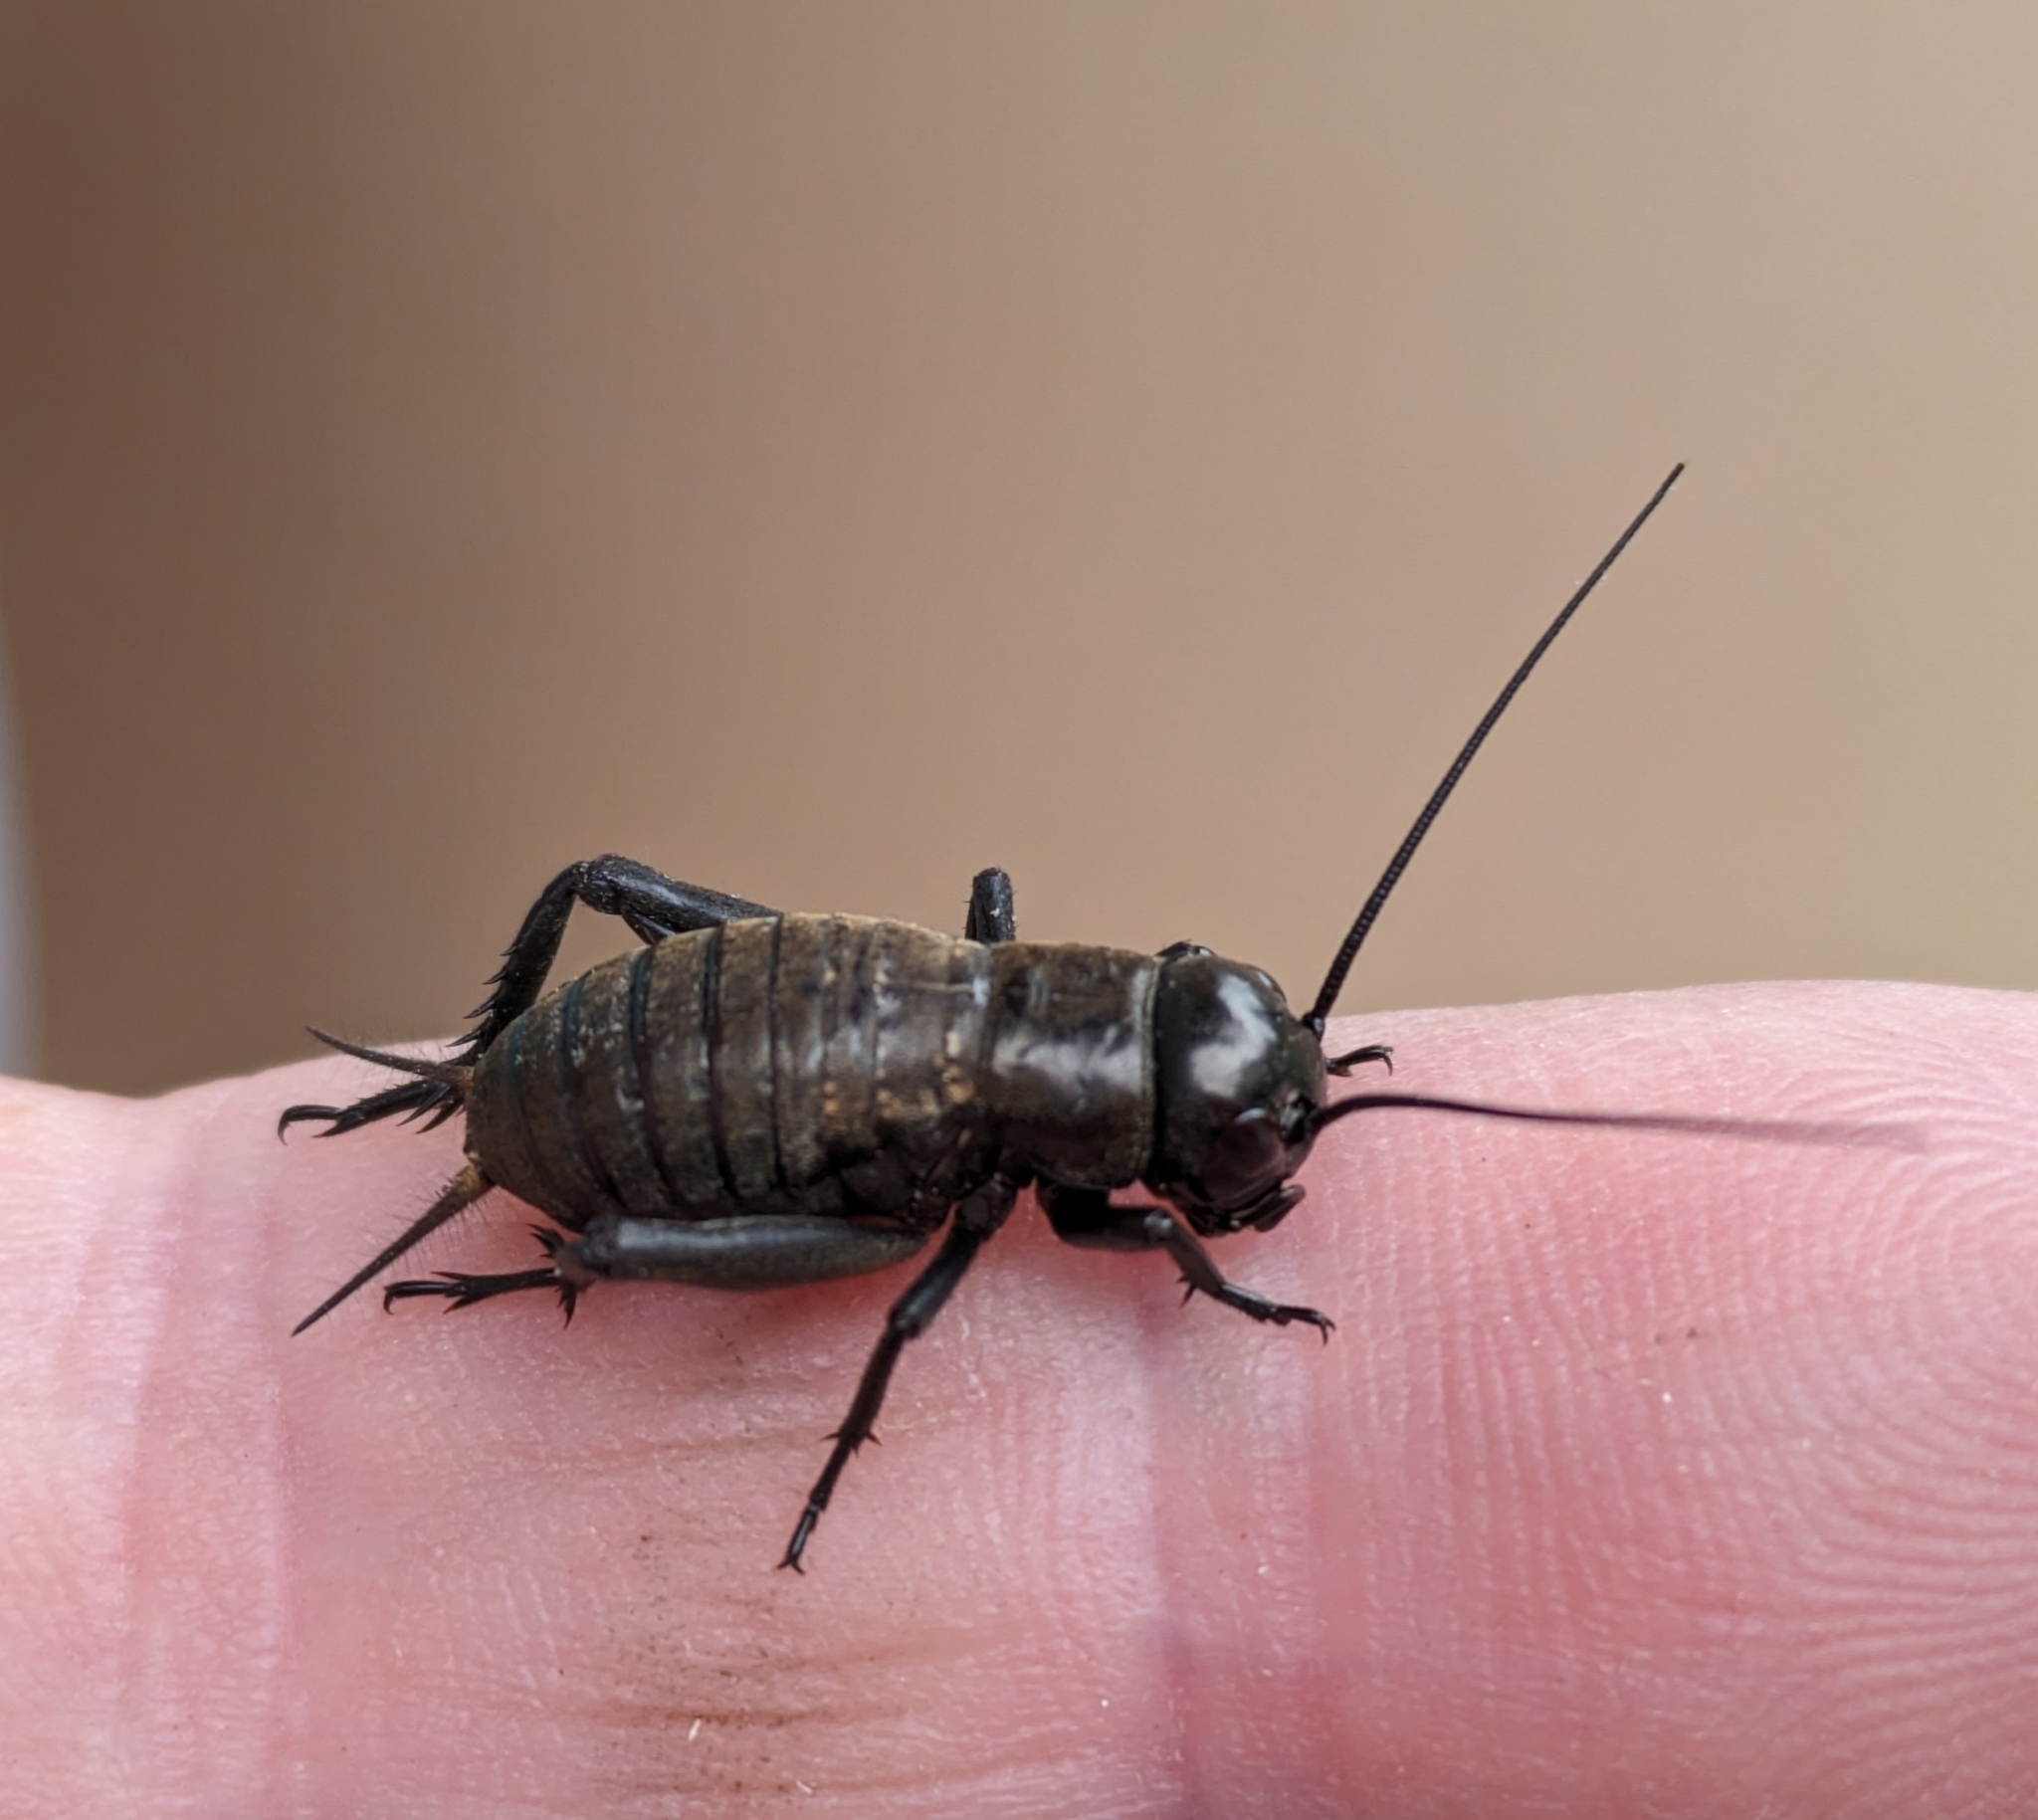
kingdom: Animalia
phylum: Arthropoda
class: Insecta
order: Orthoptera
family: Gryllidae
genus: Gryllus
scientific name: Gryllus campestris
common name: Field cricket
